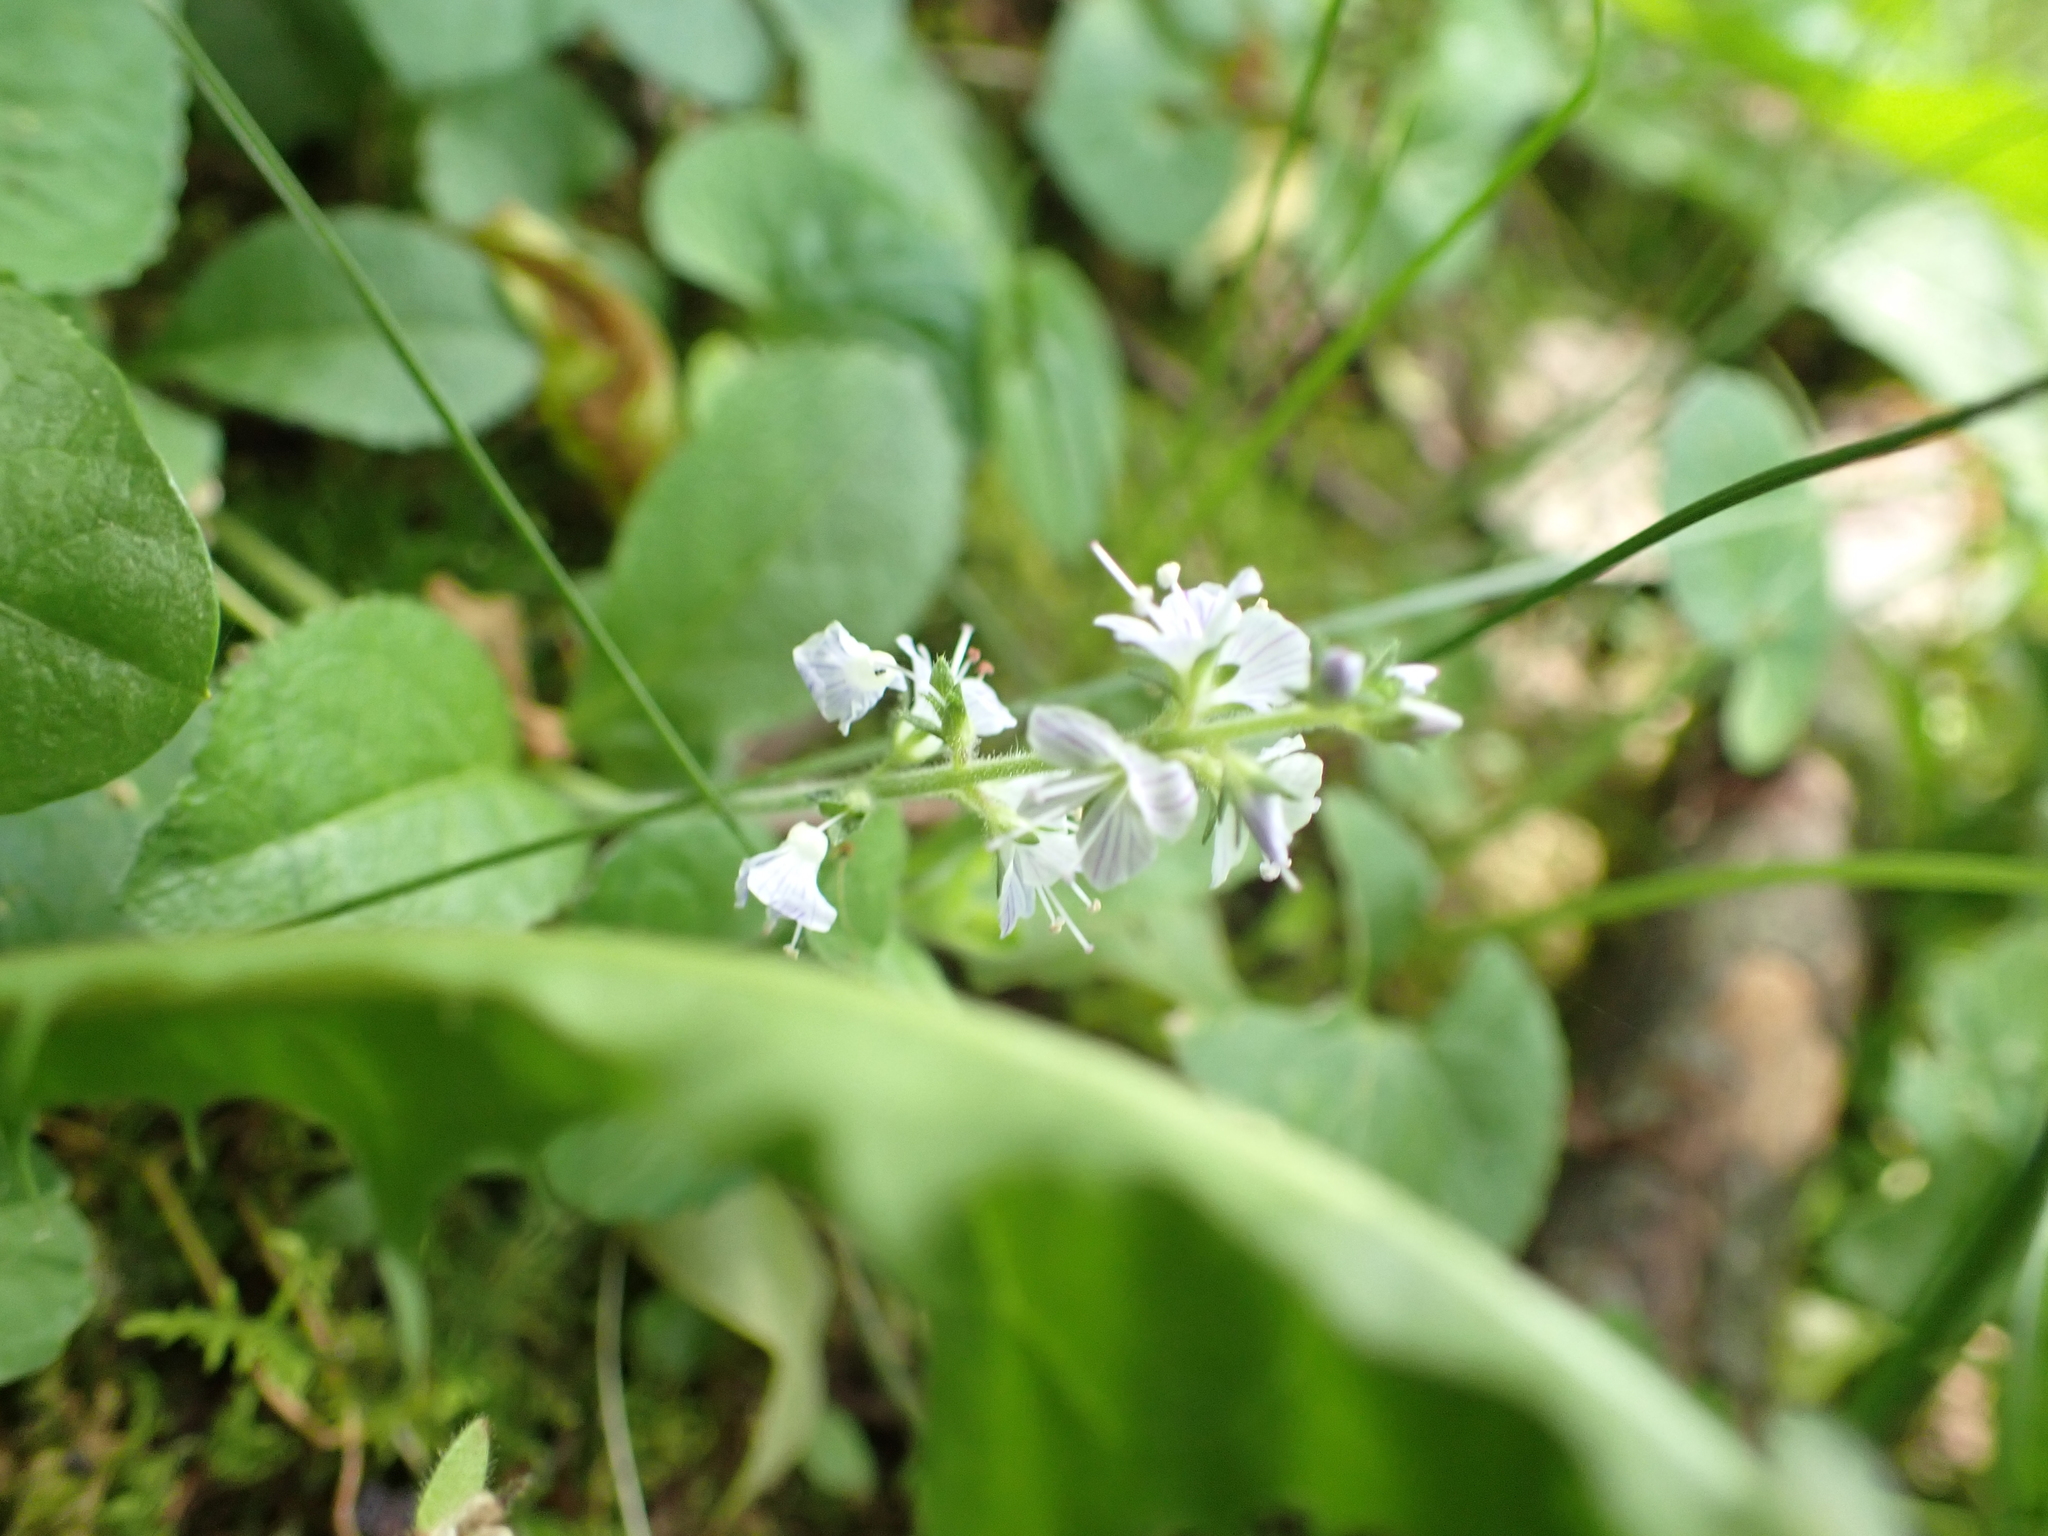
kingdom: Plantae
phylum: Tracheophyta
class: Magnoliopsida
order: Lamiales
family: Plantaginaceae
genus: Veronica
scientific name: Veronica officinalis
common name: Common speedwell
